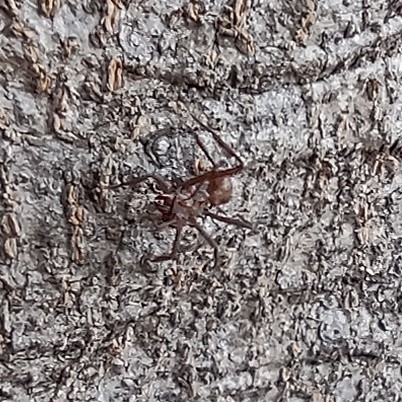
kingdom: Animalia
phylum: Arthropoda
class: Insecta
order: Hymenoptera
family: Formicidae
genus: Acromyrmex
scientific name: Acromyrmex octospinosus
